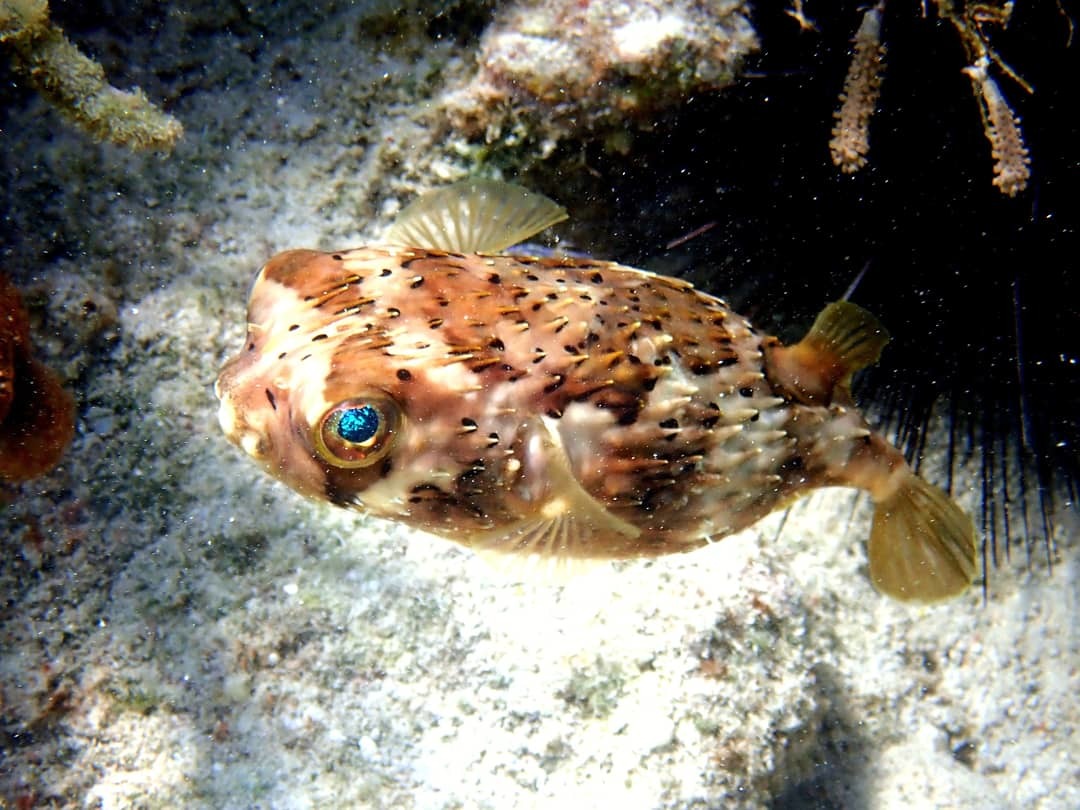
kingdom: Animalia
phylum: Chordata
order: Tetraodontiformes
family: Diodontidae
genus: Diodon
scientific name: Diodon holocanthus
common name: Balloonfish
